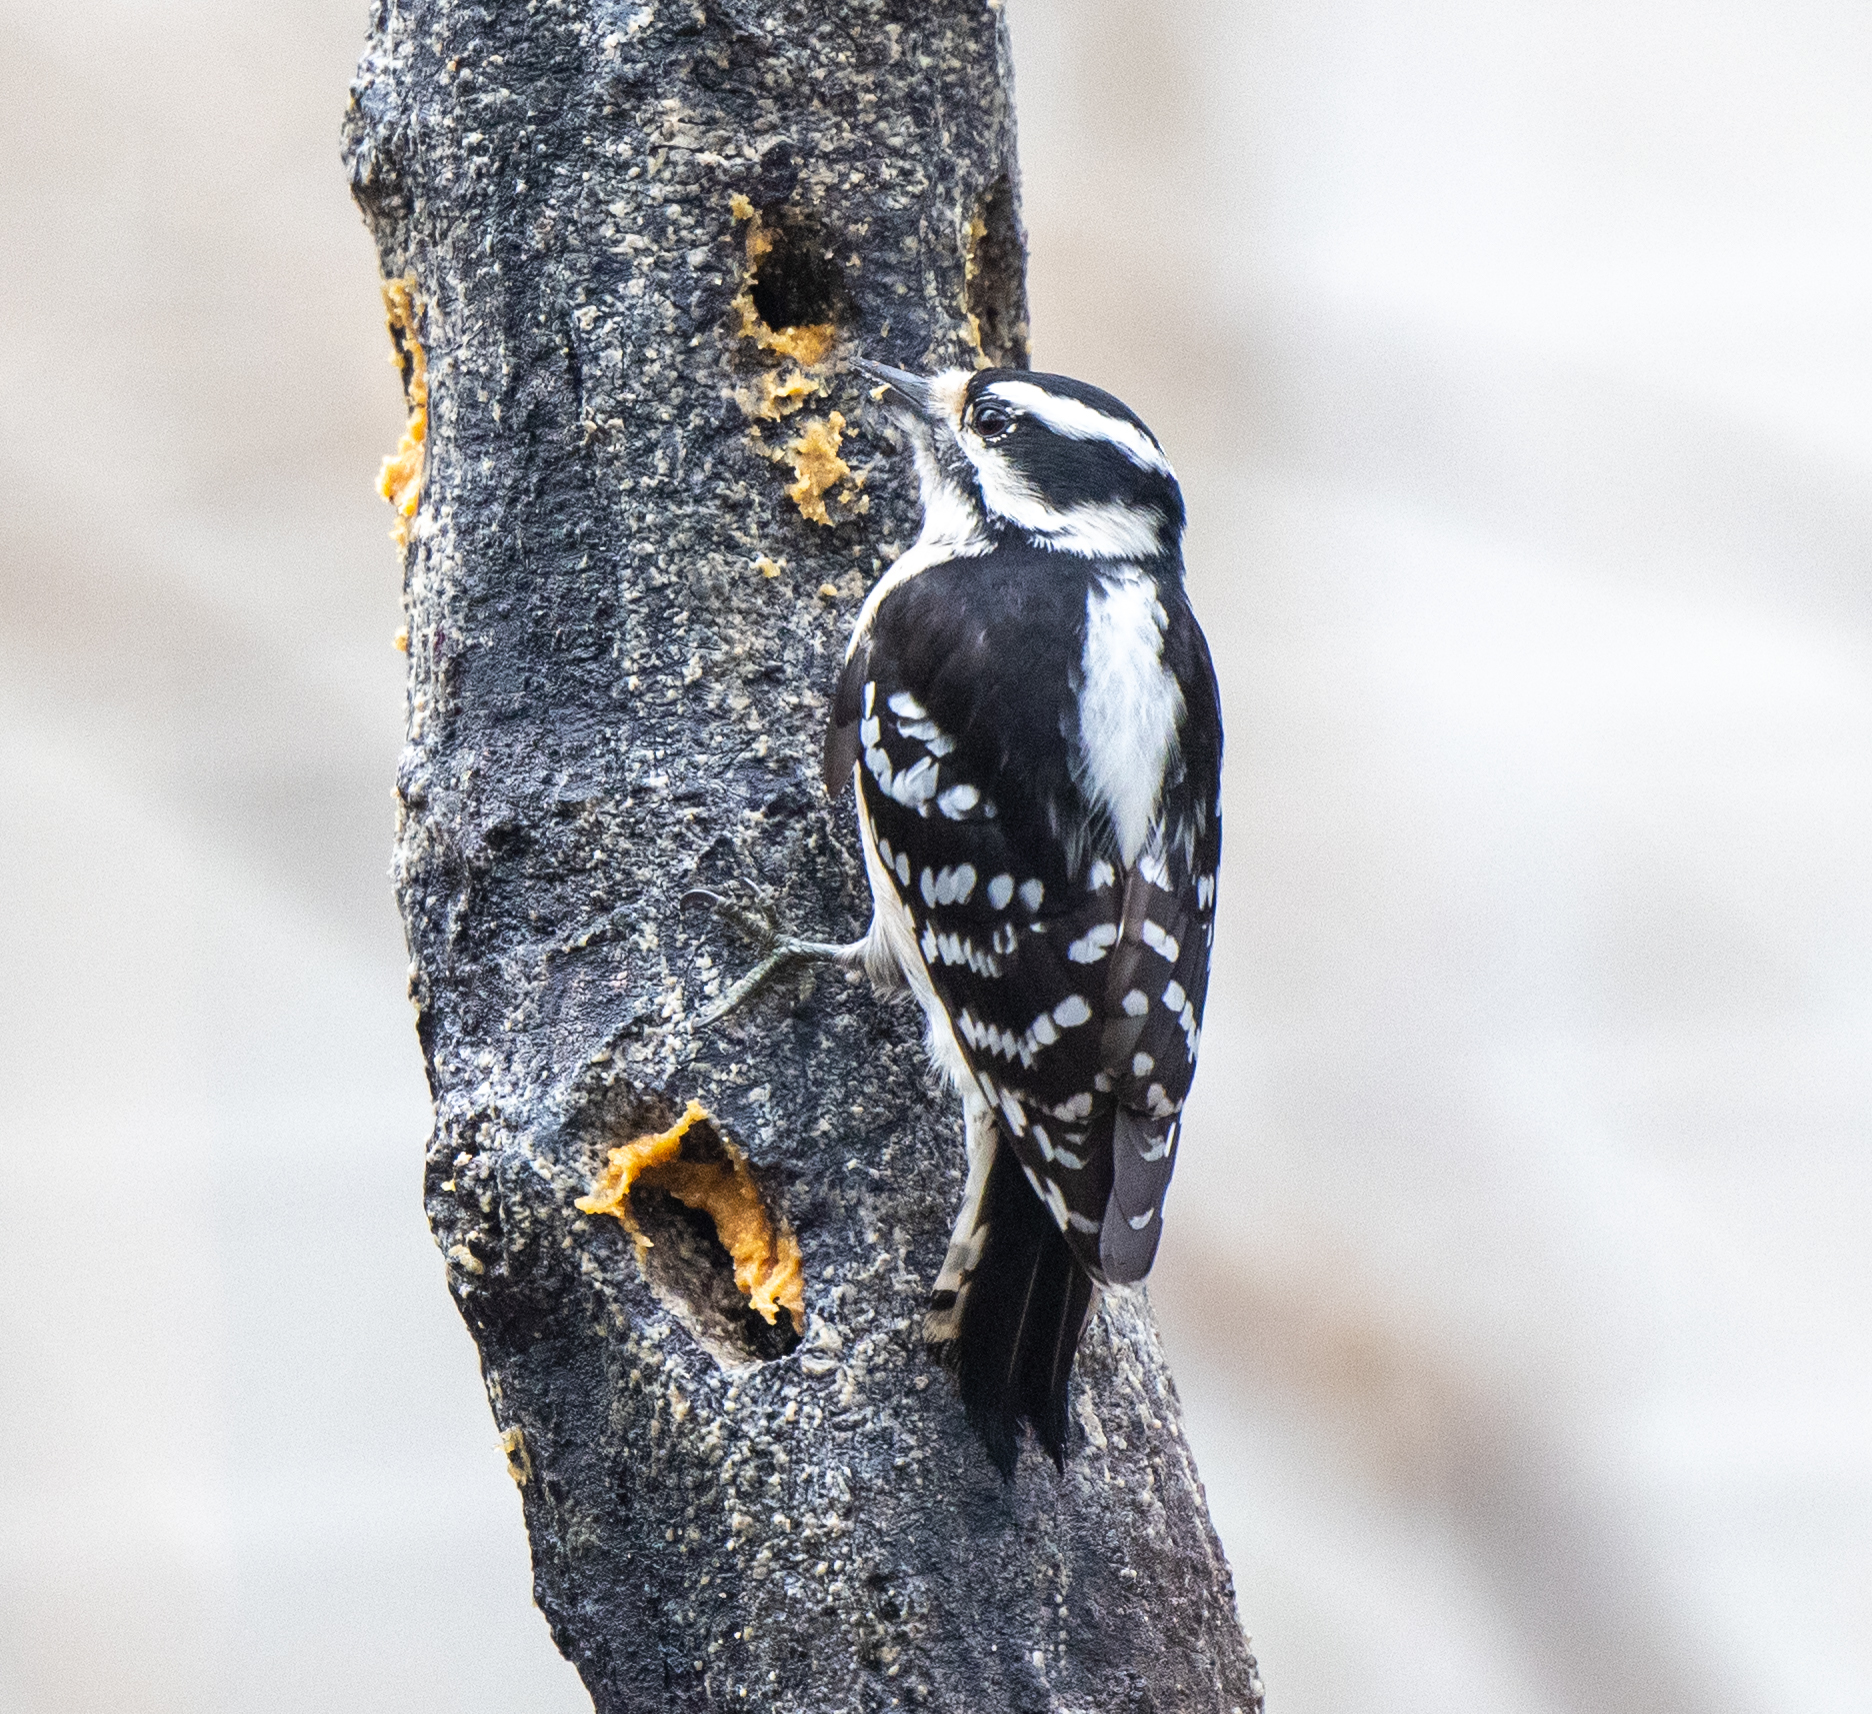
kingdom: Animalia
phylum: Chordata
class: Aves
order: Piciformes
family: Picidae
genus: Dryobates
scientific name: Dryobates pubescens
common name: Downy woodpecker
